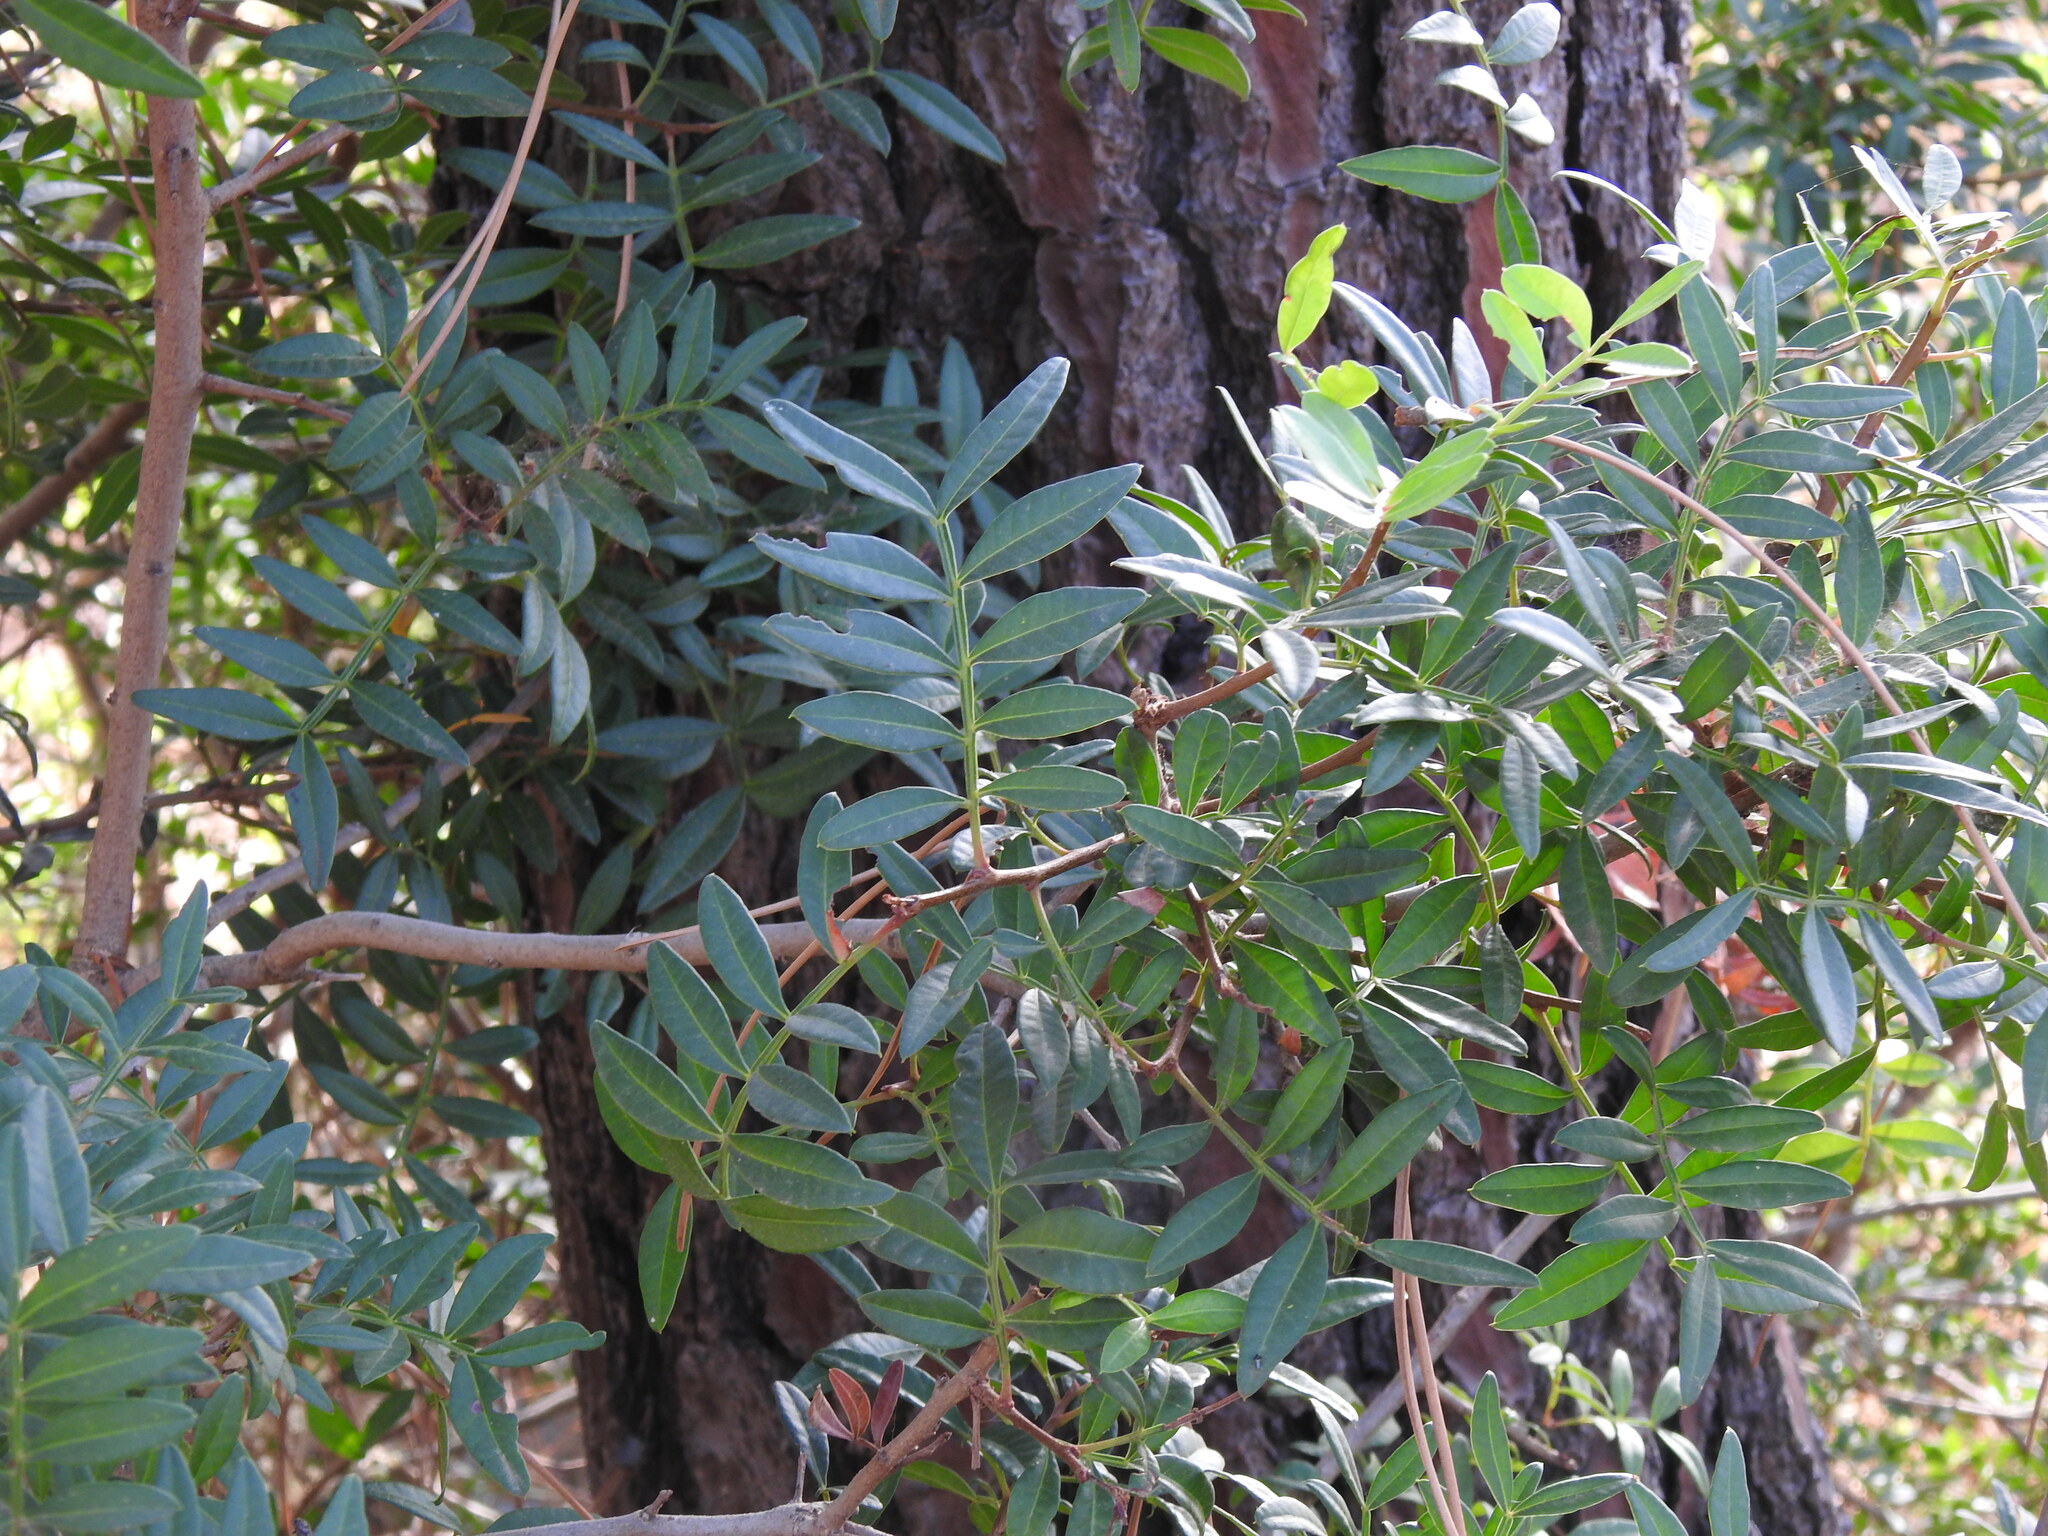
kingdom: Plantae
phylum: Tracheophyta
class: Magnoliopsida
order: Sapindales
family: Anacardiaceae
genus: Pistacia
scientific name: Pistacia lentiscus
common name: Lentisk
